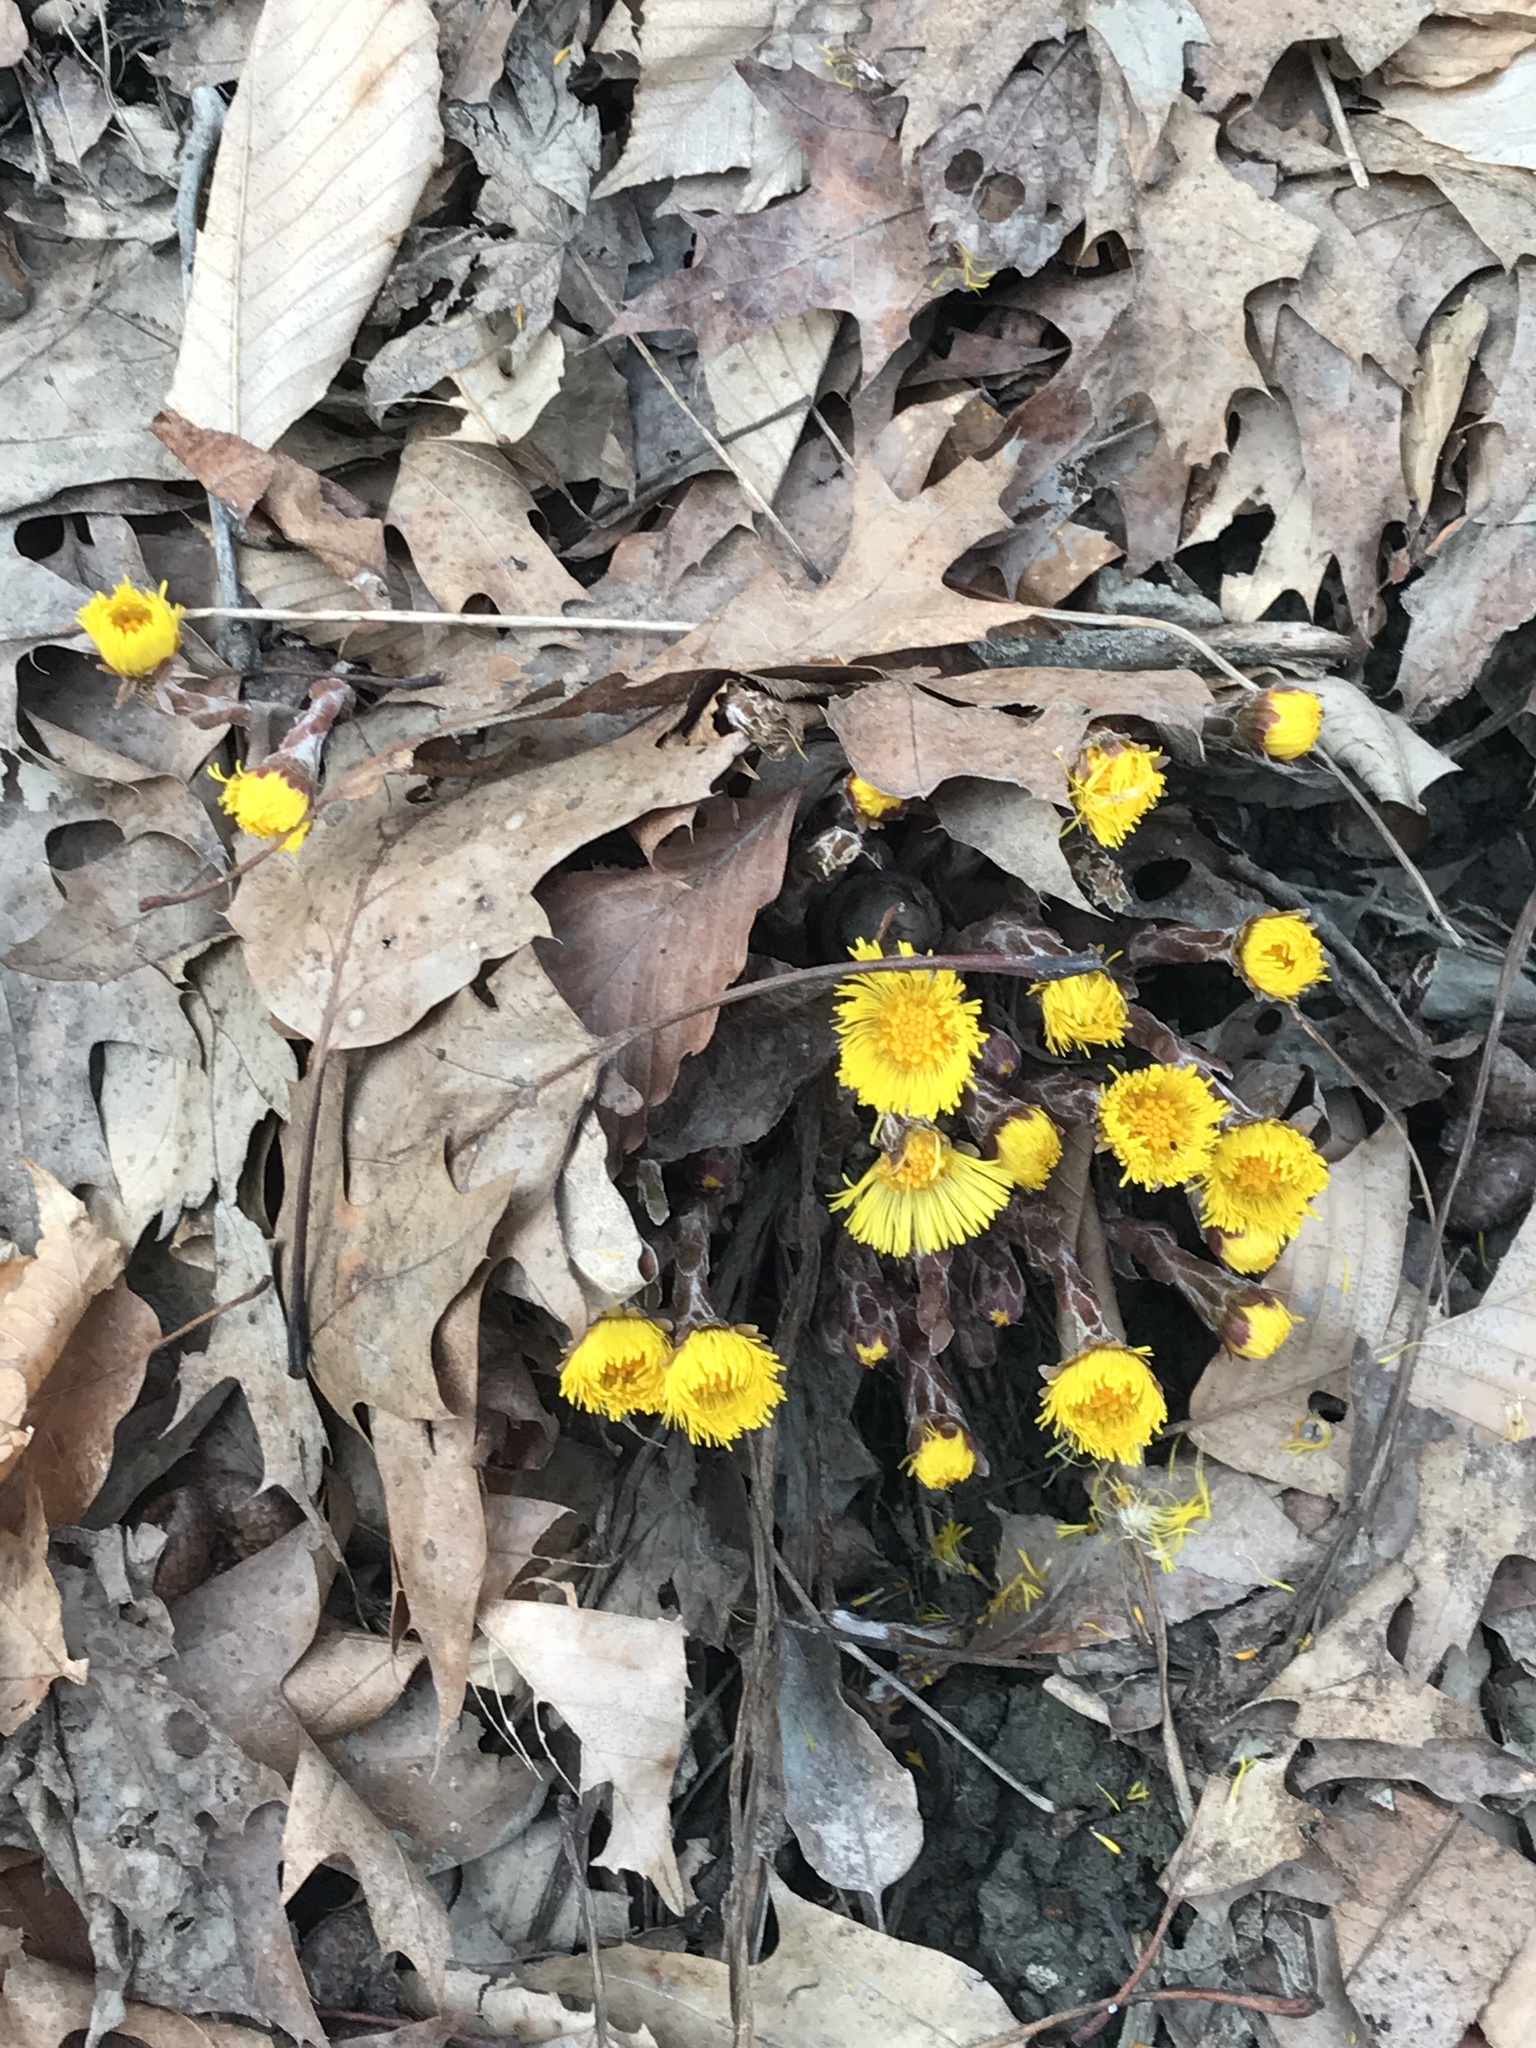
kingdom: Plantae
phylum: Tracheophyta
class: Magnoliopsida
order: Asterales
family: Asteraceae
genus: Tussilago
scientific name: Tussilago farfara
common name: Coltsfoot
